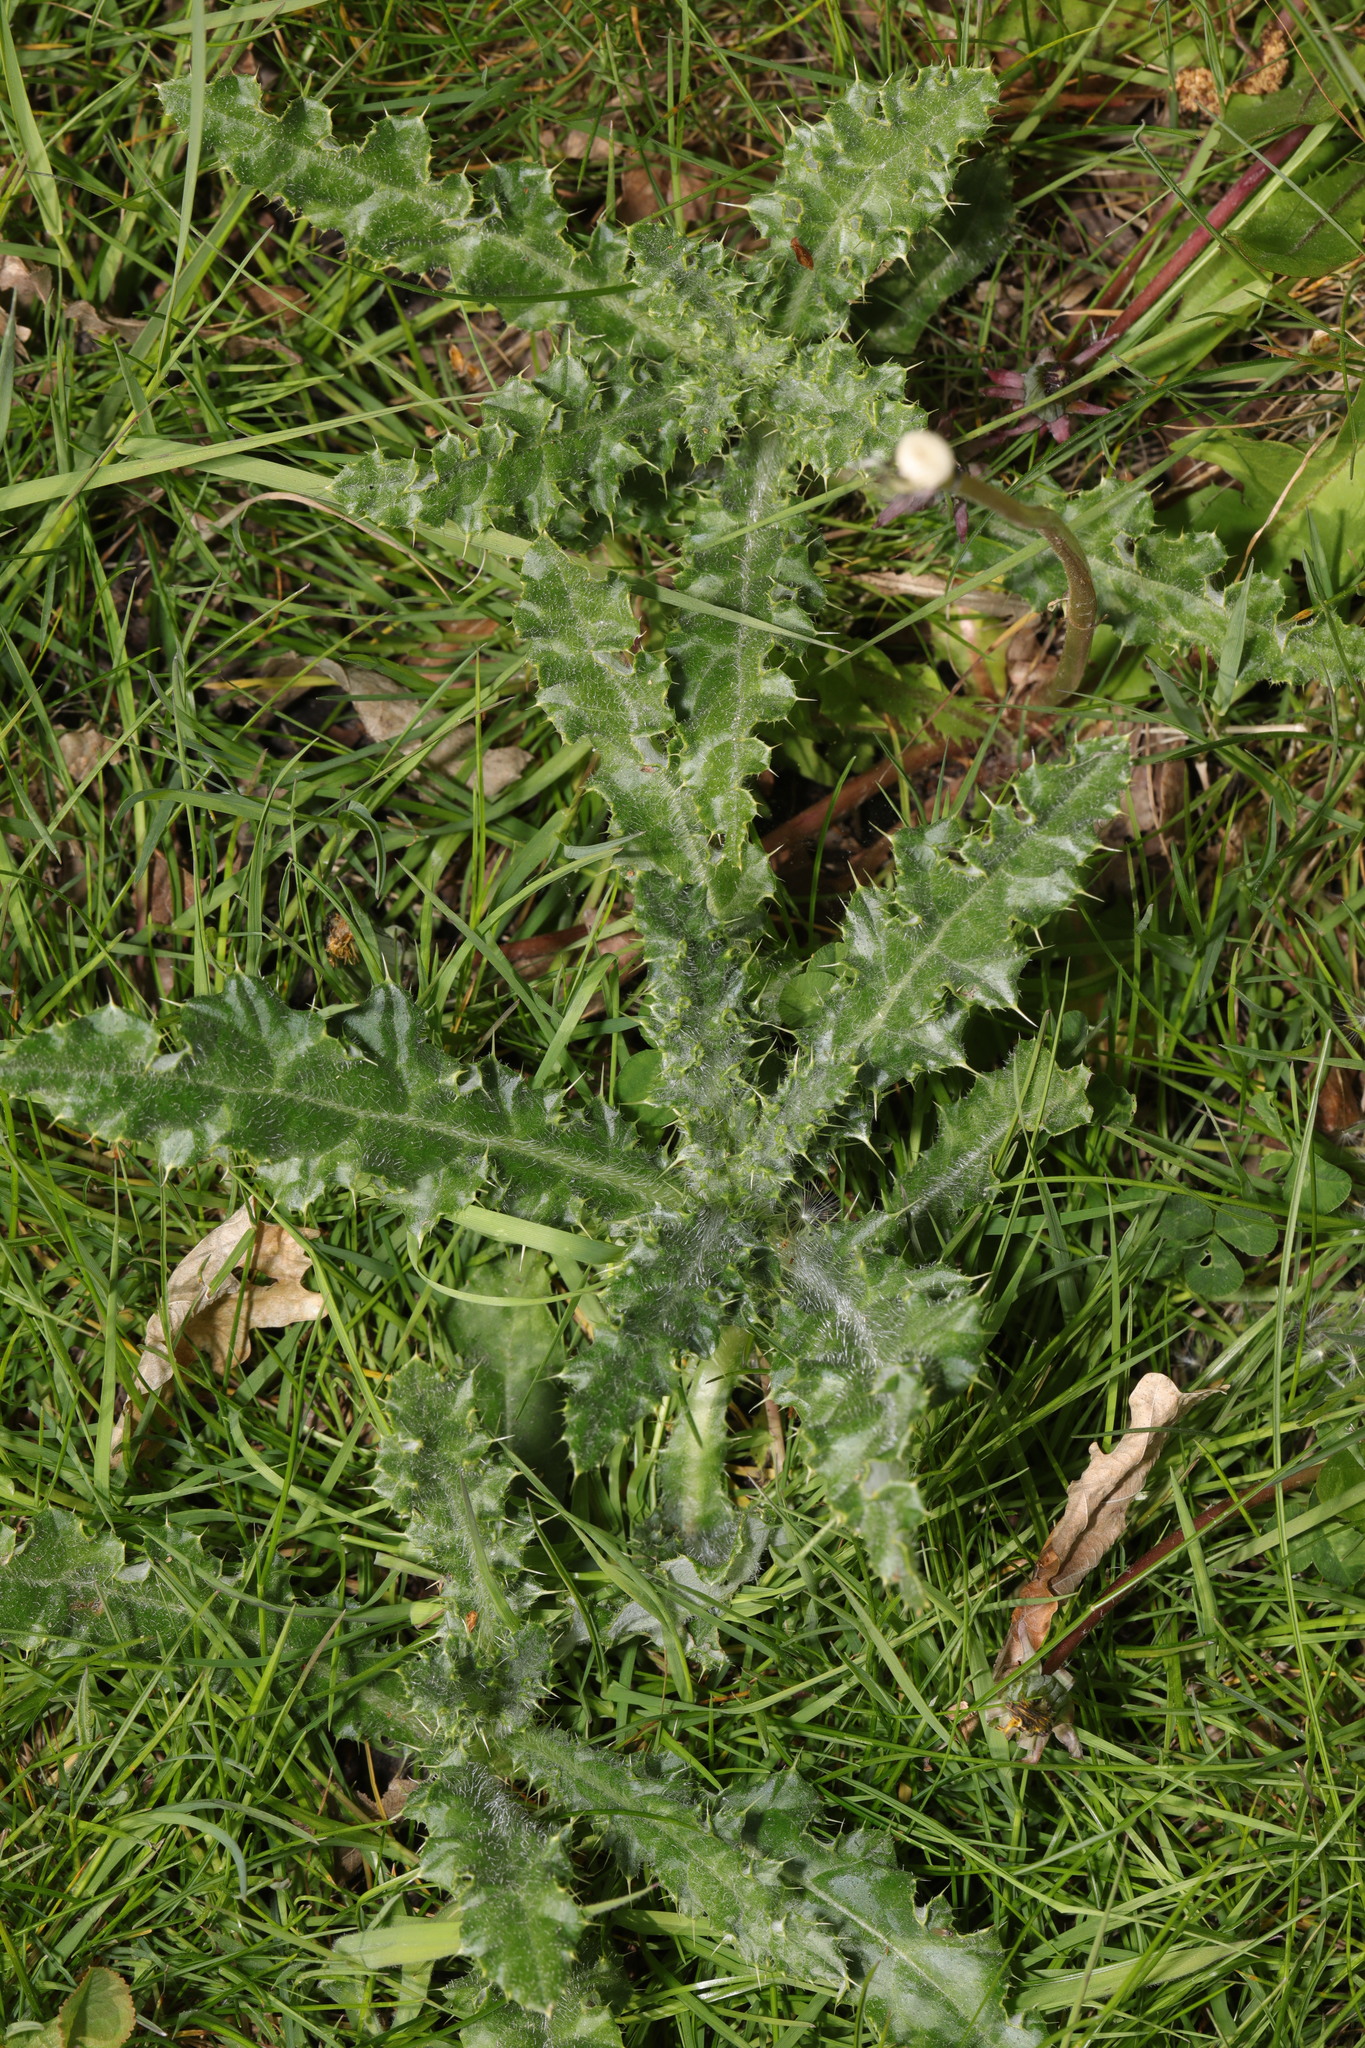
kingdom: Plantae
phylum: Tracheophyta
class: Magnoliopsida
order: Asterales
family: Asteraceae
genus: Cirsium
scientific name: Cirsium arvense
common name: Creeping thistle
